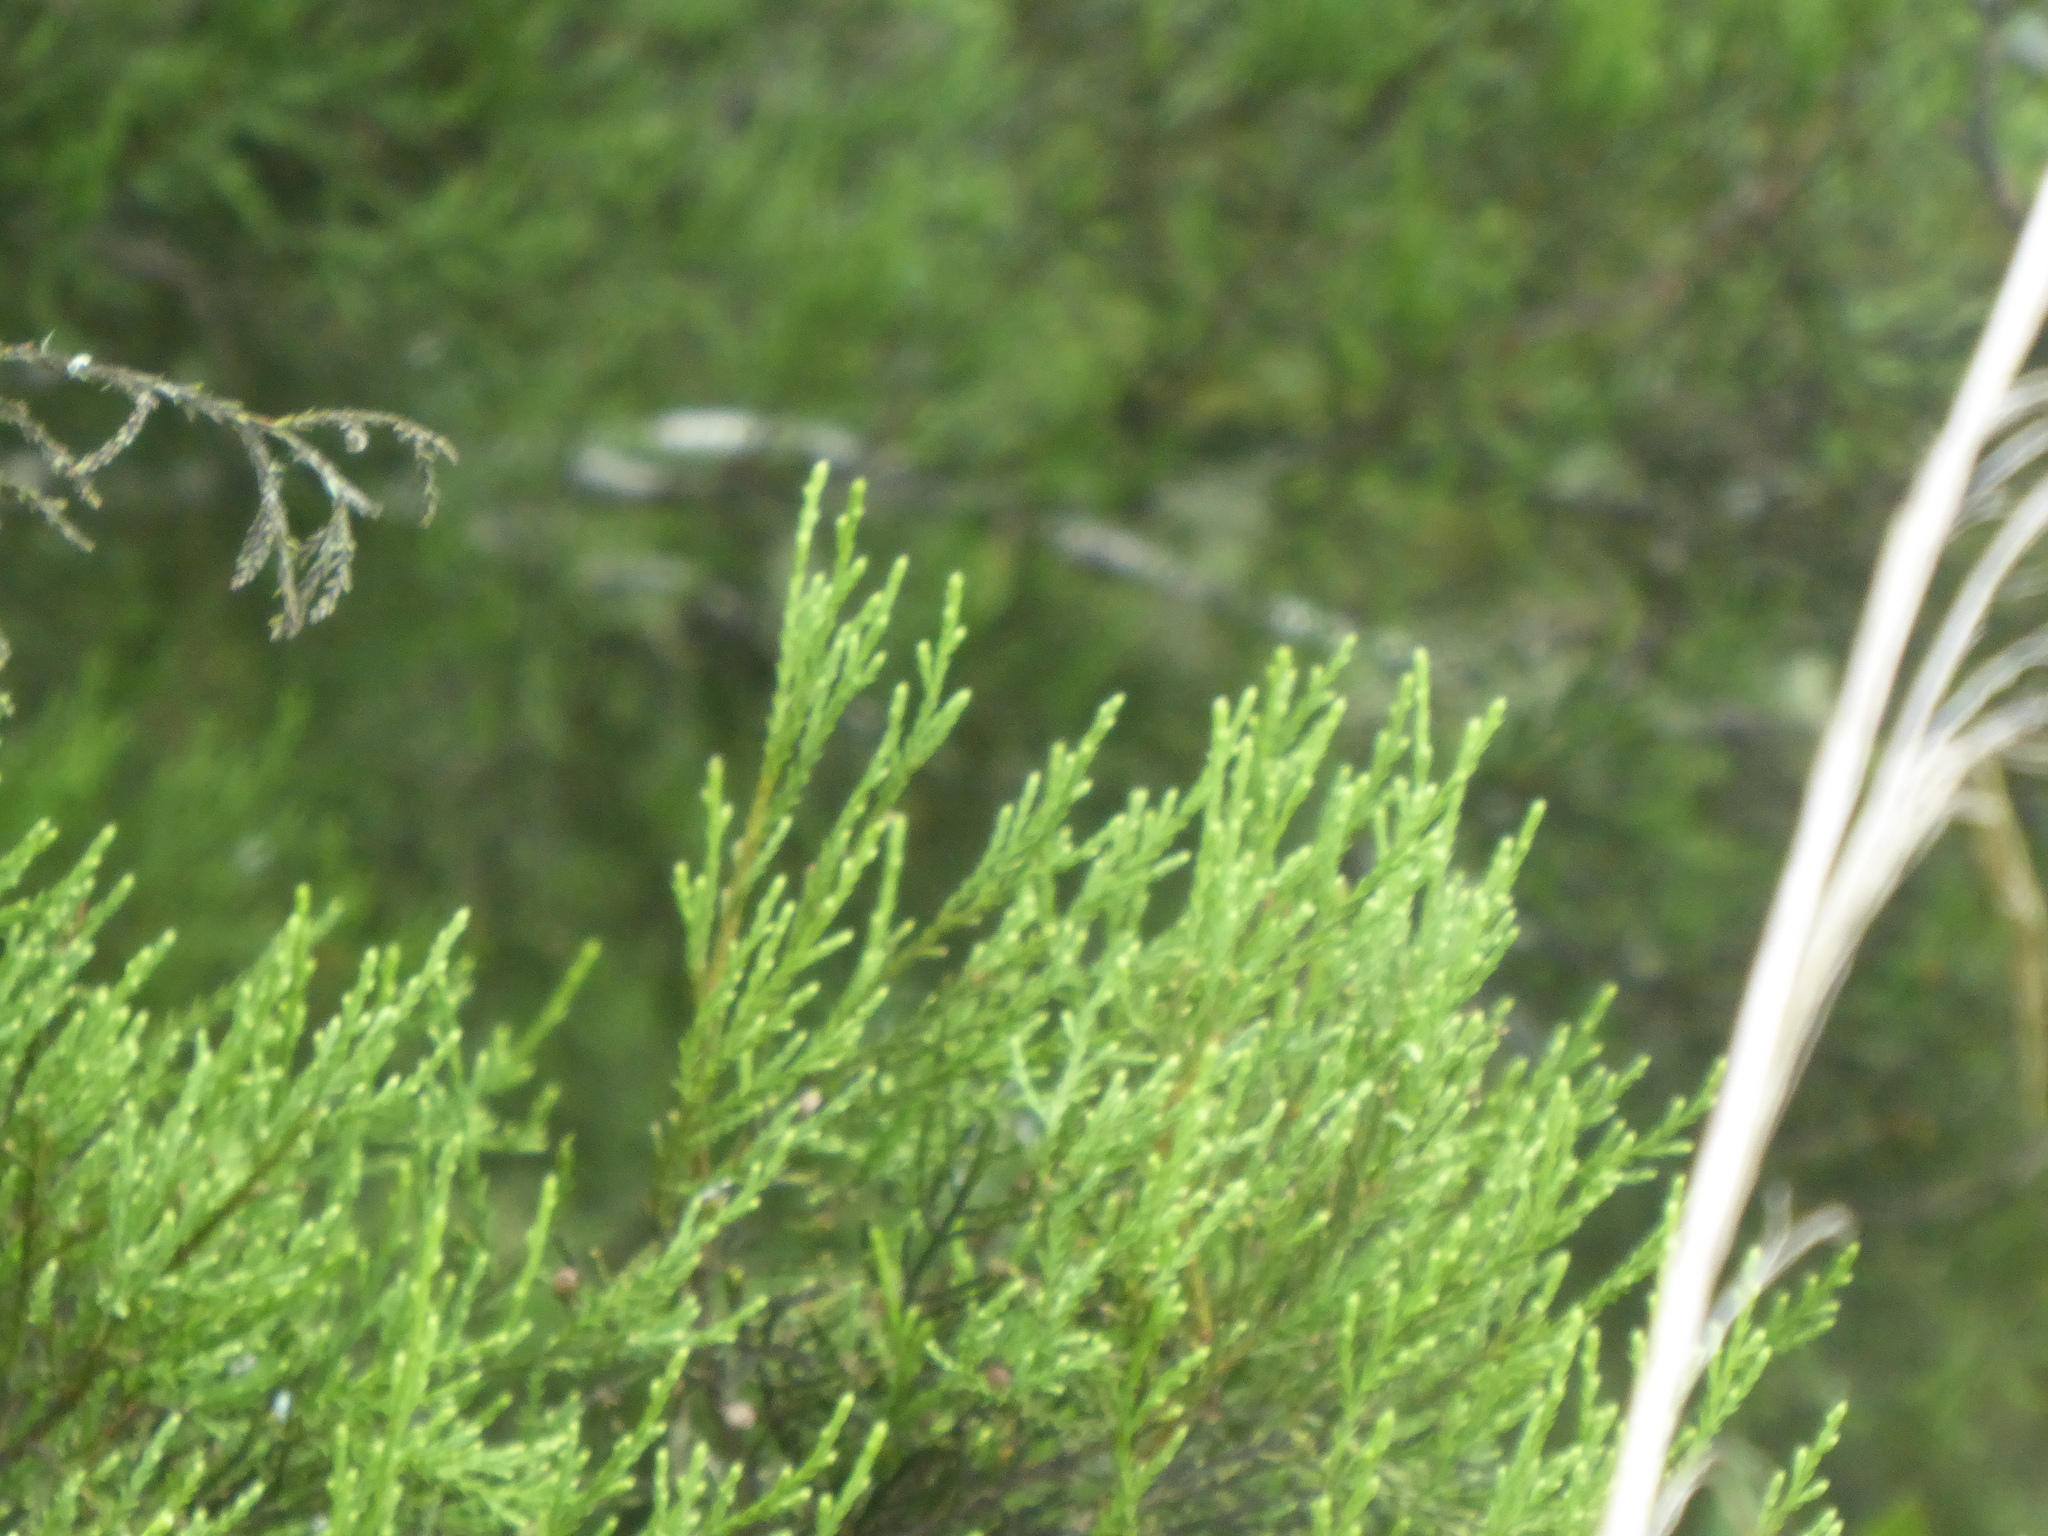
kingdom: Plantae
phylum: Tracheophyta
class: Pinopsida
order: Pinales
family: Podocarpaceae
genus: Dacrycarpus
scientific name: Dacrycarpus dacrydioides
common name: White pine
